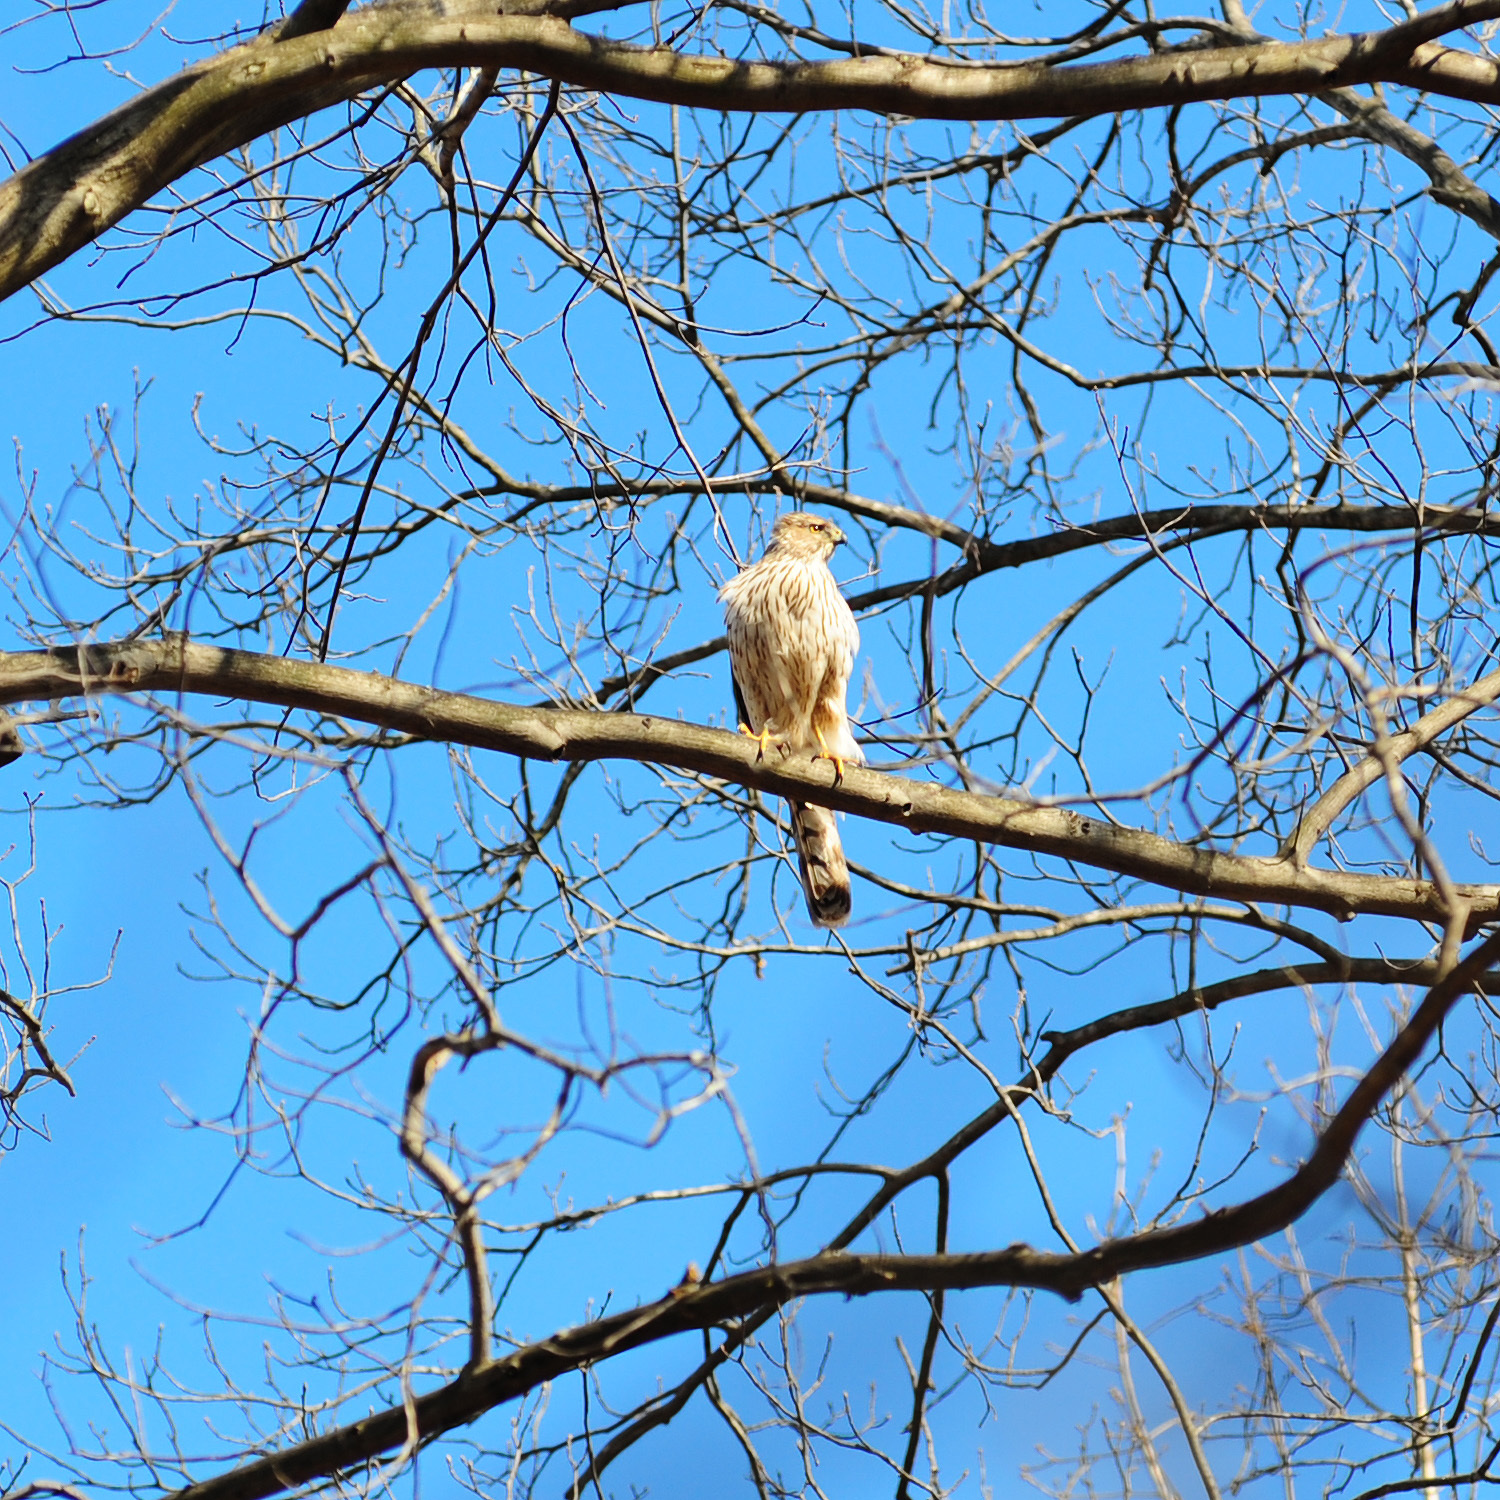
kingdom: Animalia
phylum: Chordata
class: Aves
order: Accipitriformes
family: Accipitridae
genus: Accipiter
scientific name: Accipiter cooperii
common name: Cooper's hawk
